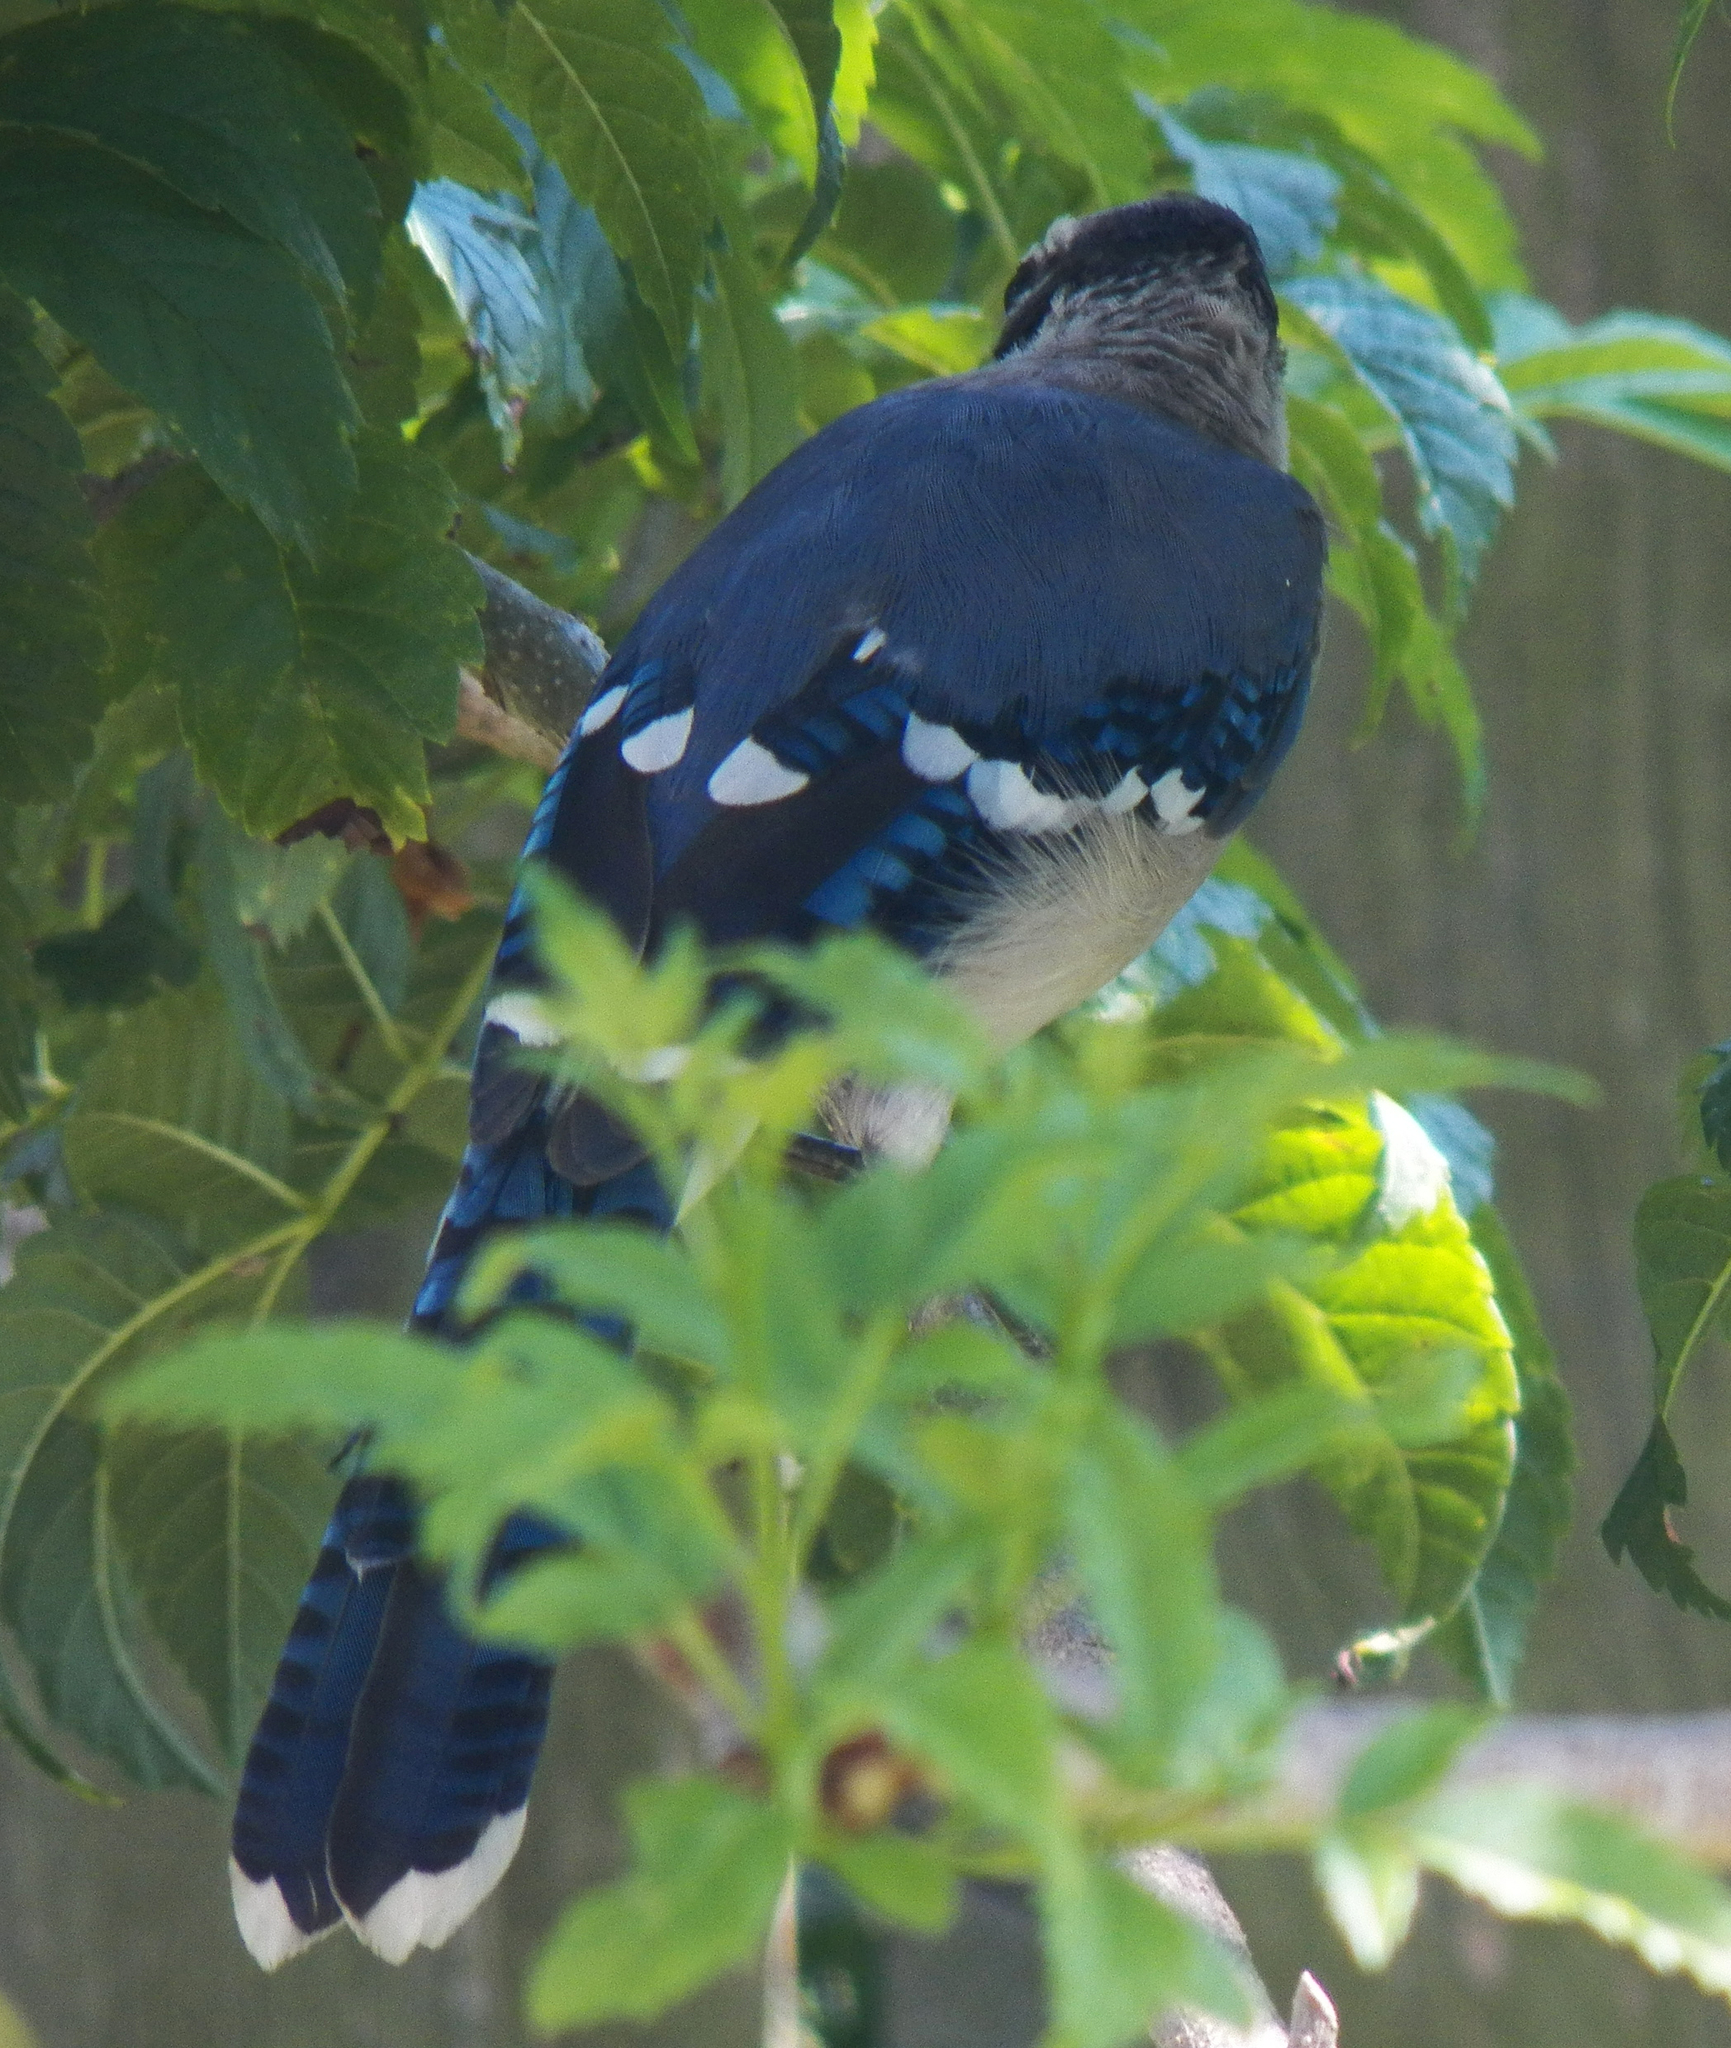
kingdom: Animalia
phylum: Chordata
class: Aves
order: Passeriformes
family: Corvidae
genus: Cyanocitta
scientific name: Cyanocitta cristata
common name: Blue jay
